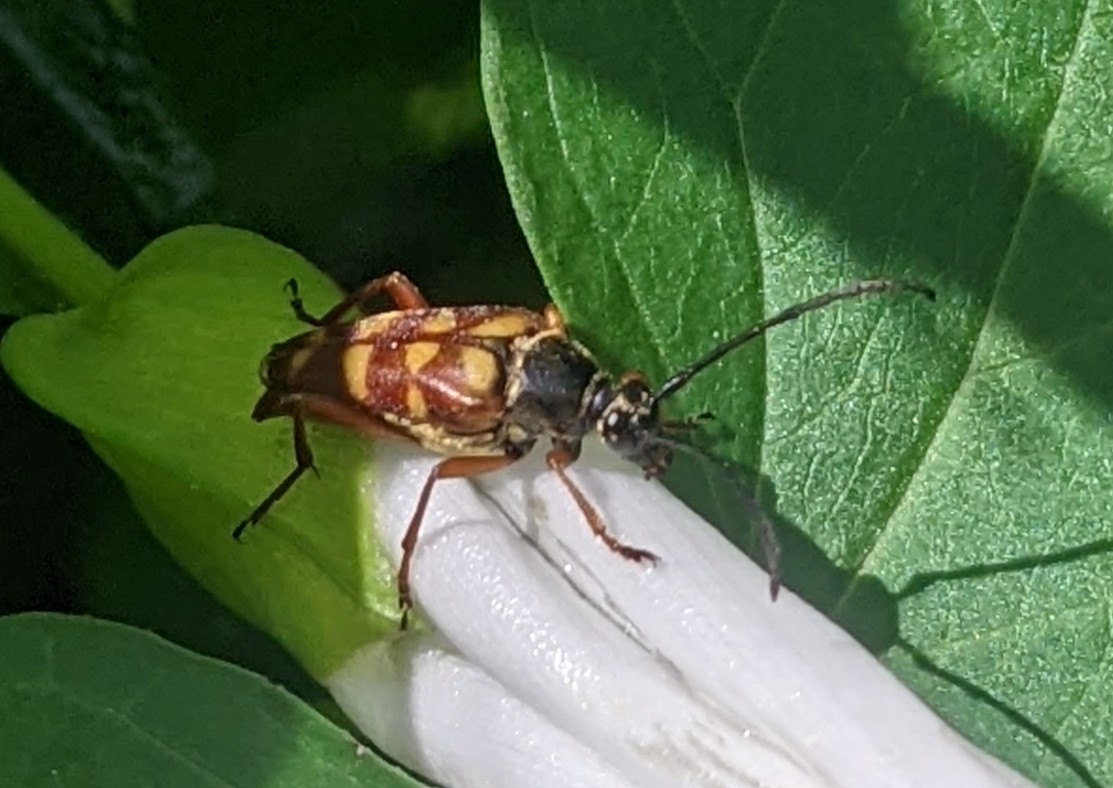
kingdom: Animalia
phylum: Arthropoda
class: Insecta
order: Coleoptera
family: Cerambycidae
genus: Typocerus
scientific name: Typocerus velutinus
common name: Banded longhorn beetle
